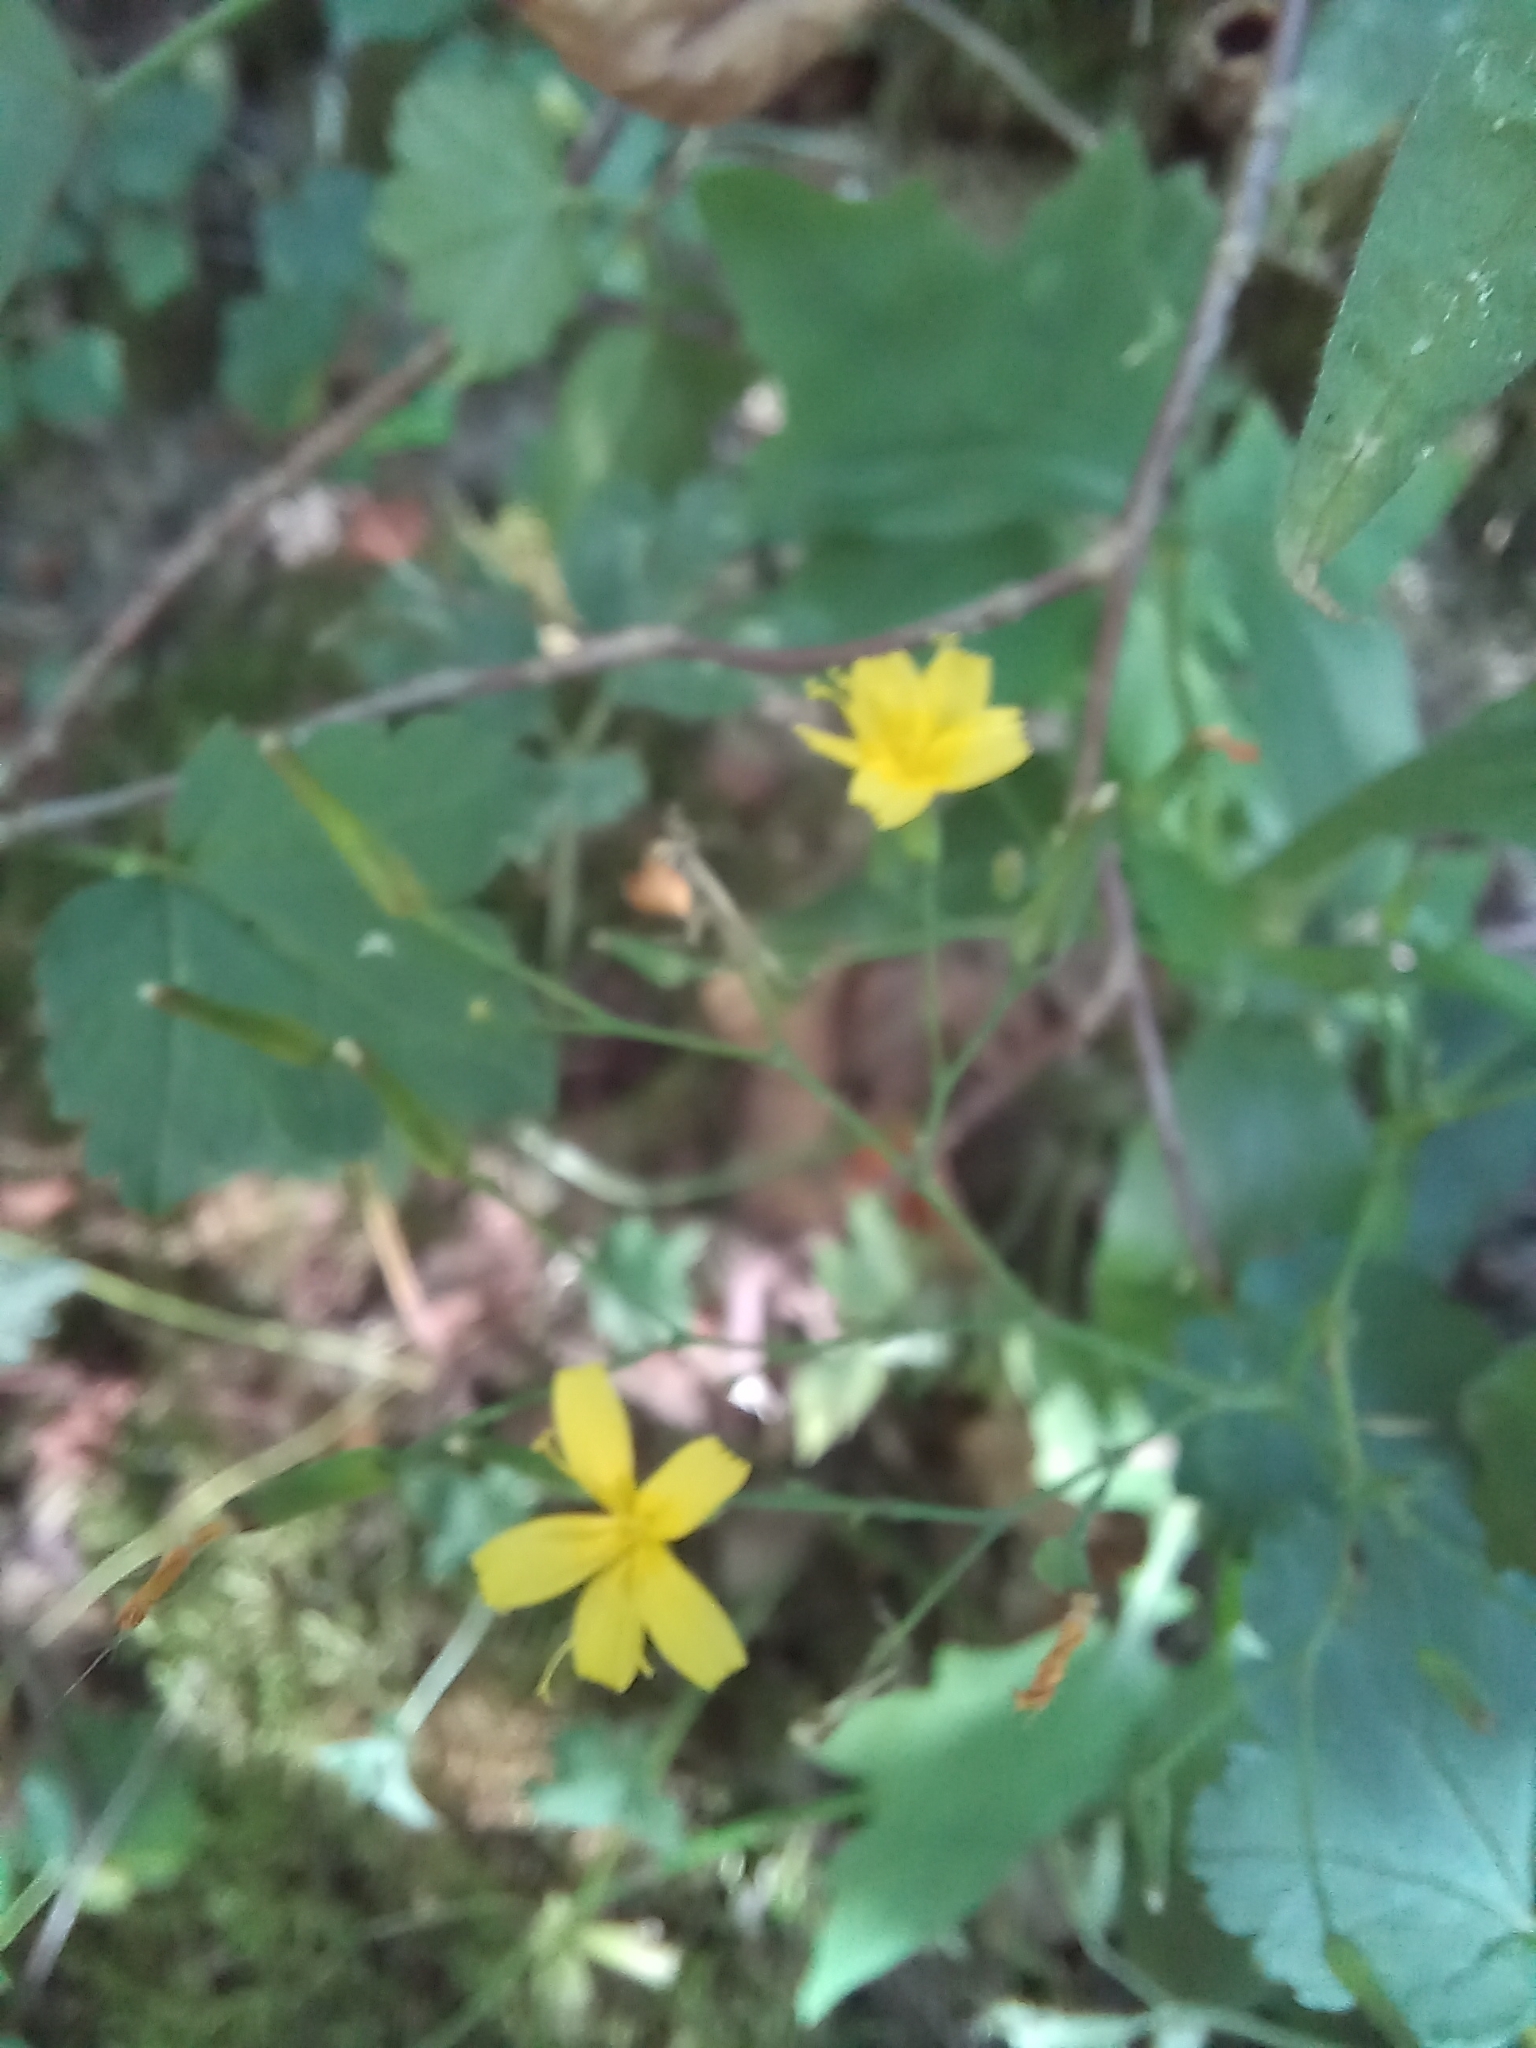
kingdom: Plantae
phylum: Tracheophyta
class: Magnoliopsida
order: Asterales
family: Asteraceae
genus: Mycelis
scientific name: Mycelis muralis
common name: Wall lettuce
